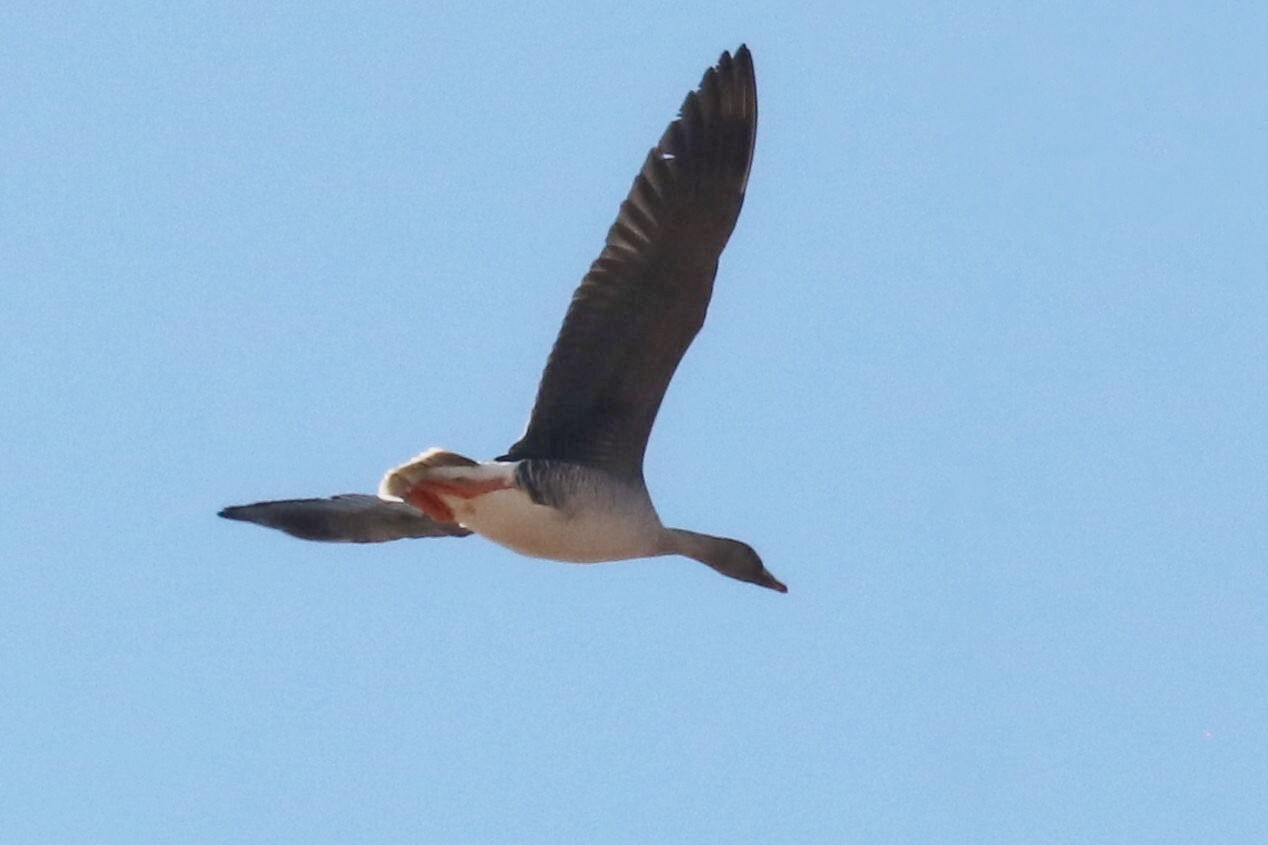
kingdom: Animalia
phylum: Chordata
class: Aves
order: Anseriformes
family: Anatidae
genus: Anser
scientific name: Anser fabalis
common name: Bean goose
